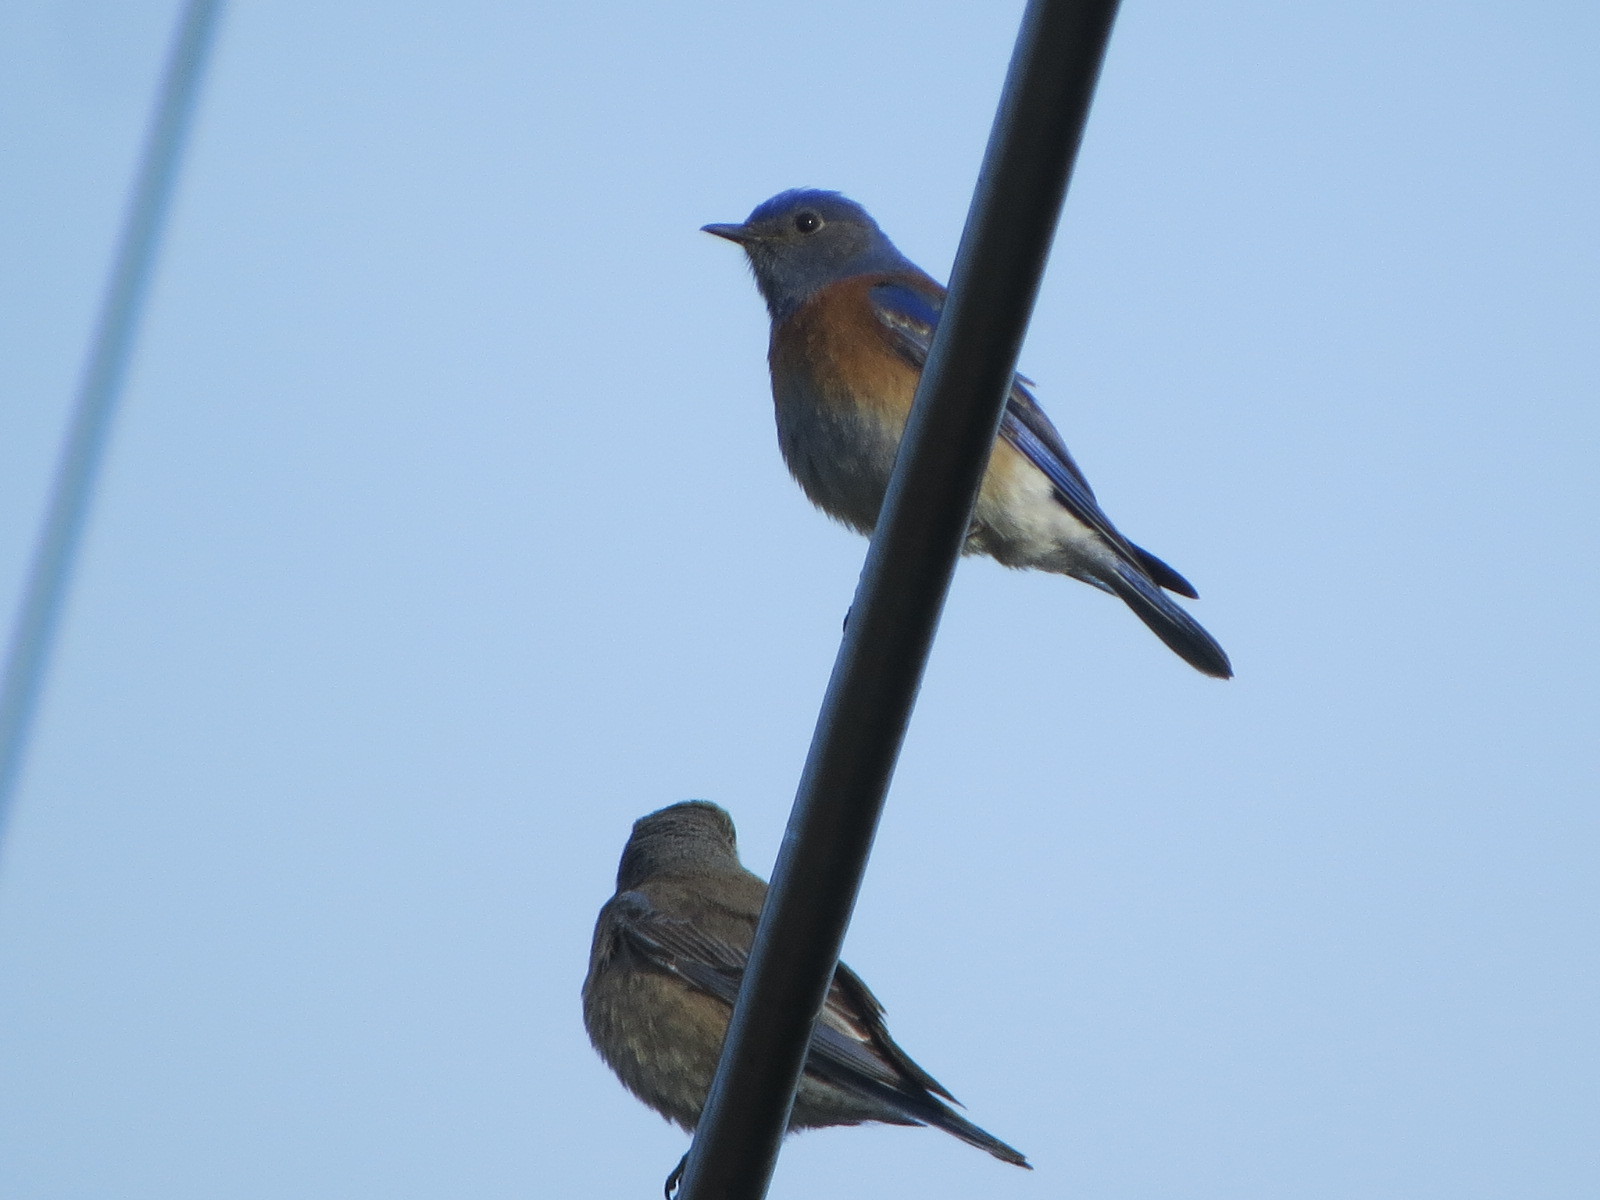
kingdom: Animalia
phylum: Chordata
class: Aves
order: Passeriformes
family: Turdidae
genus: Sialia
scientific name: Sialia mexicana
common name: Western bluebird
